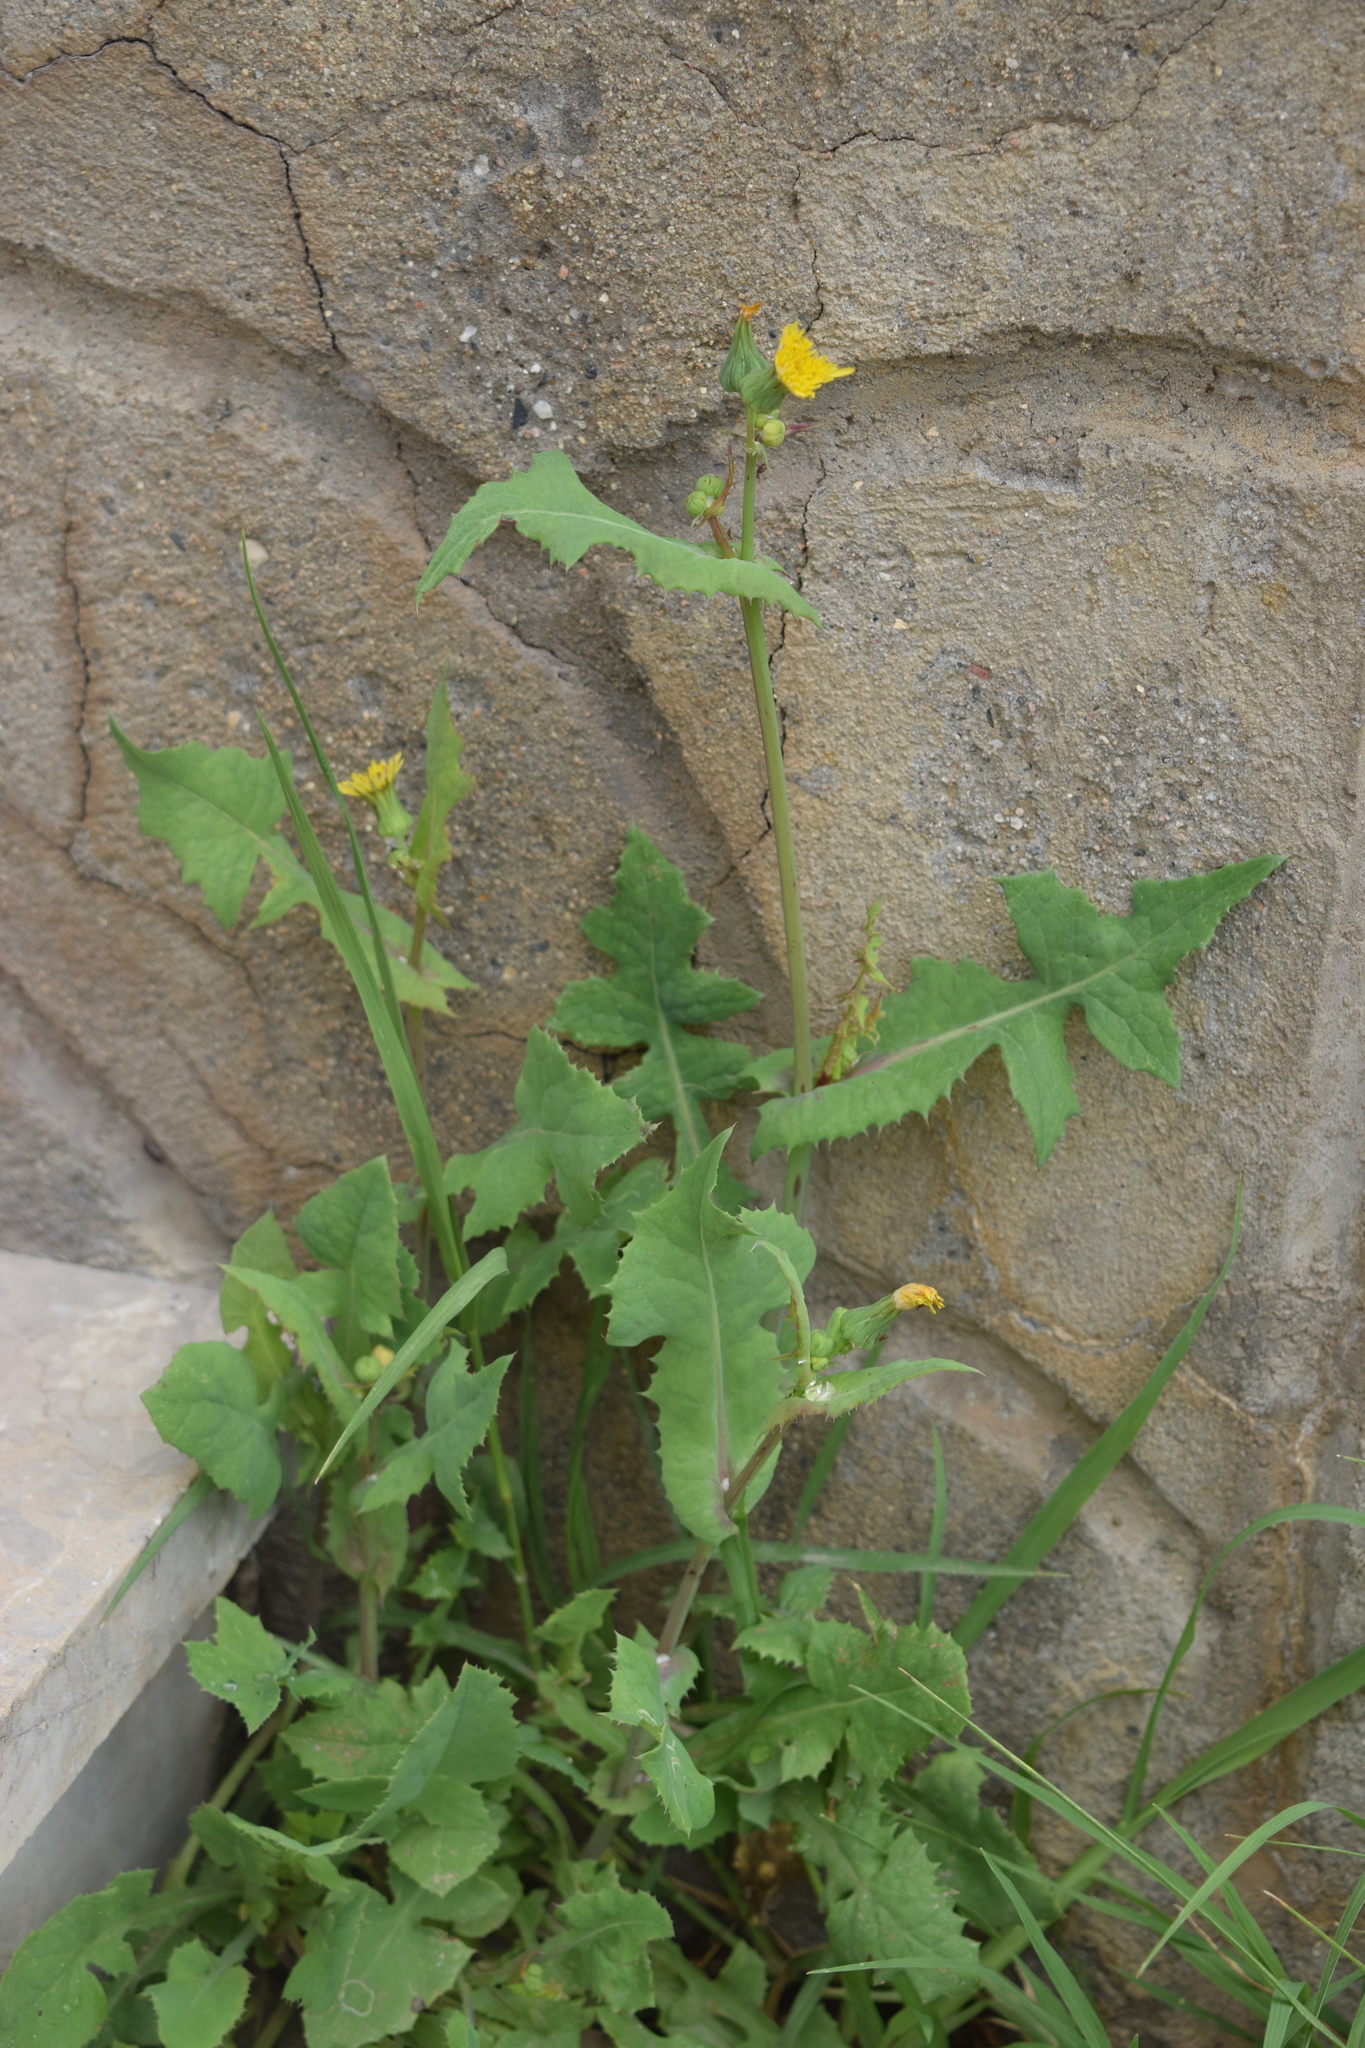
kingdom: Plantae
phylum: Tracheophyta
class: Magnoliopsida
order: Asterales
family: Asteraceae
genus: Sonchus
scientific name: Sonchus oleraceus
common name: Common sowthistle
